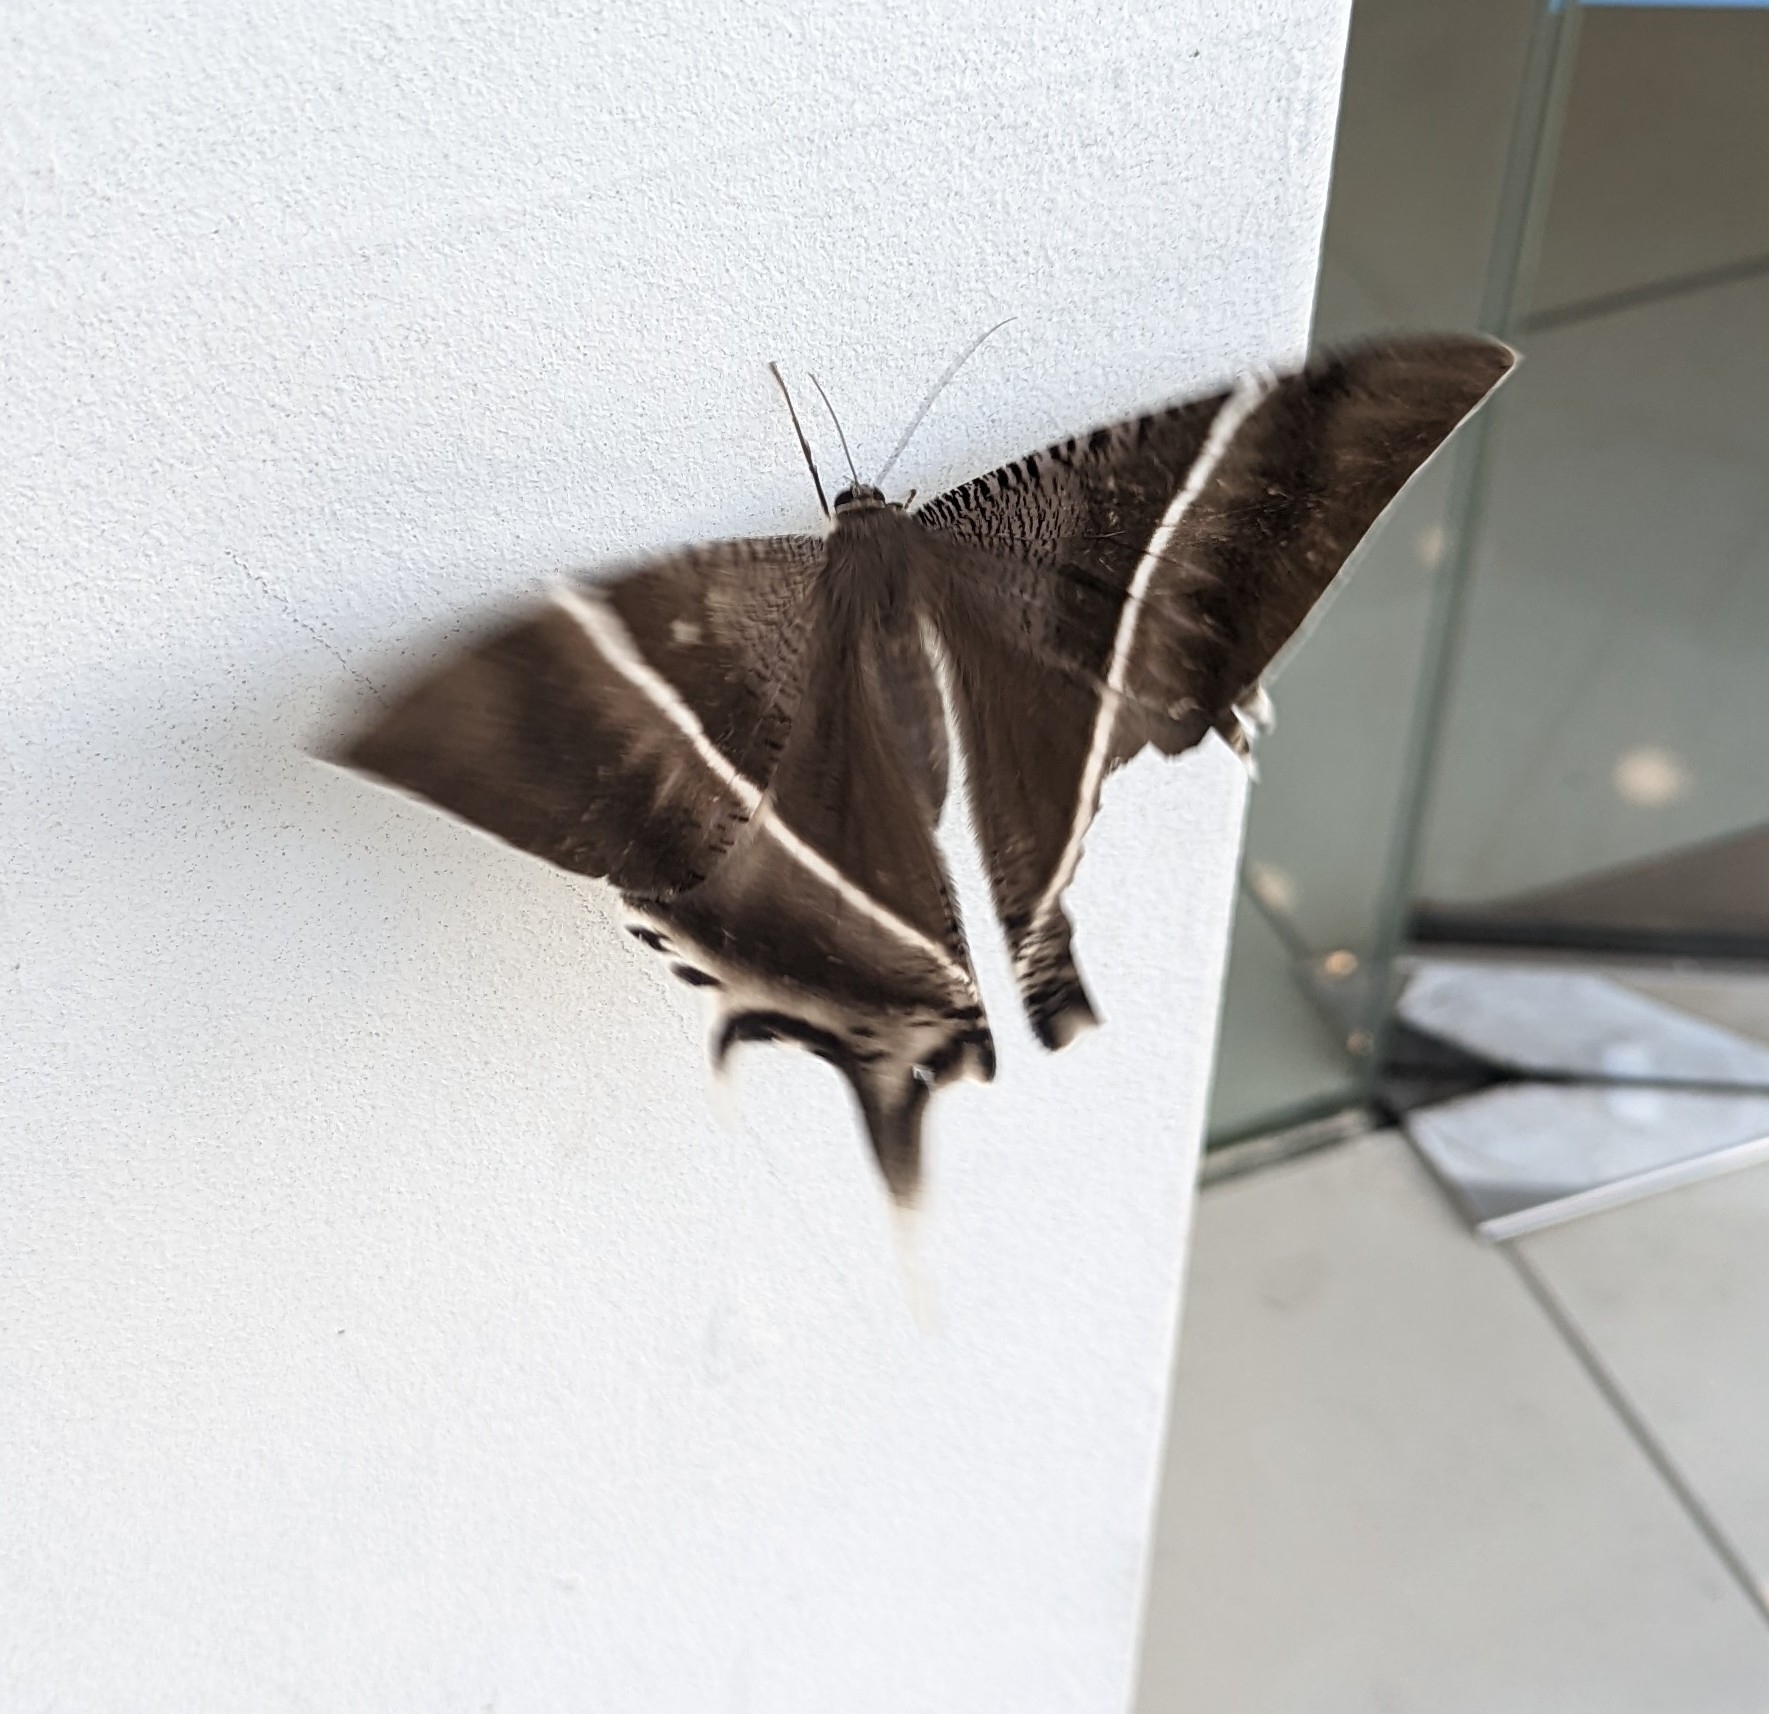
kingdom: Animalia
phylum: Arthropoda
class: Insecta
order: Lepidoptera
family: Uraniidae
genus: Lyssa
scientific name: Lyssa zampa
